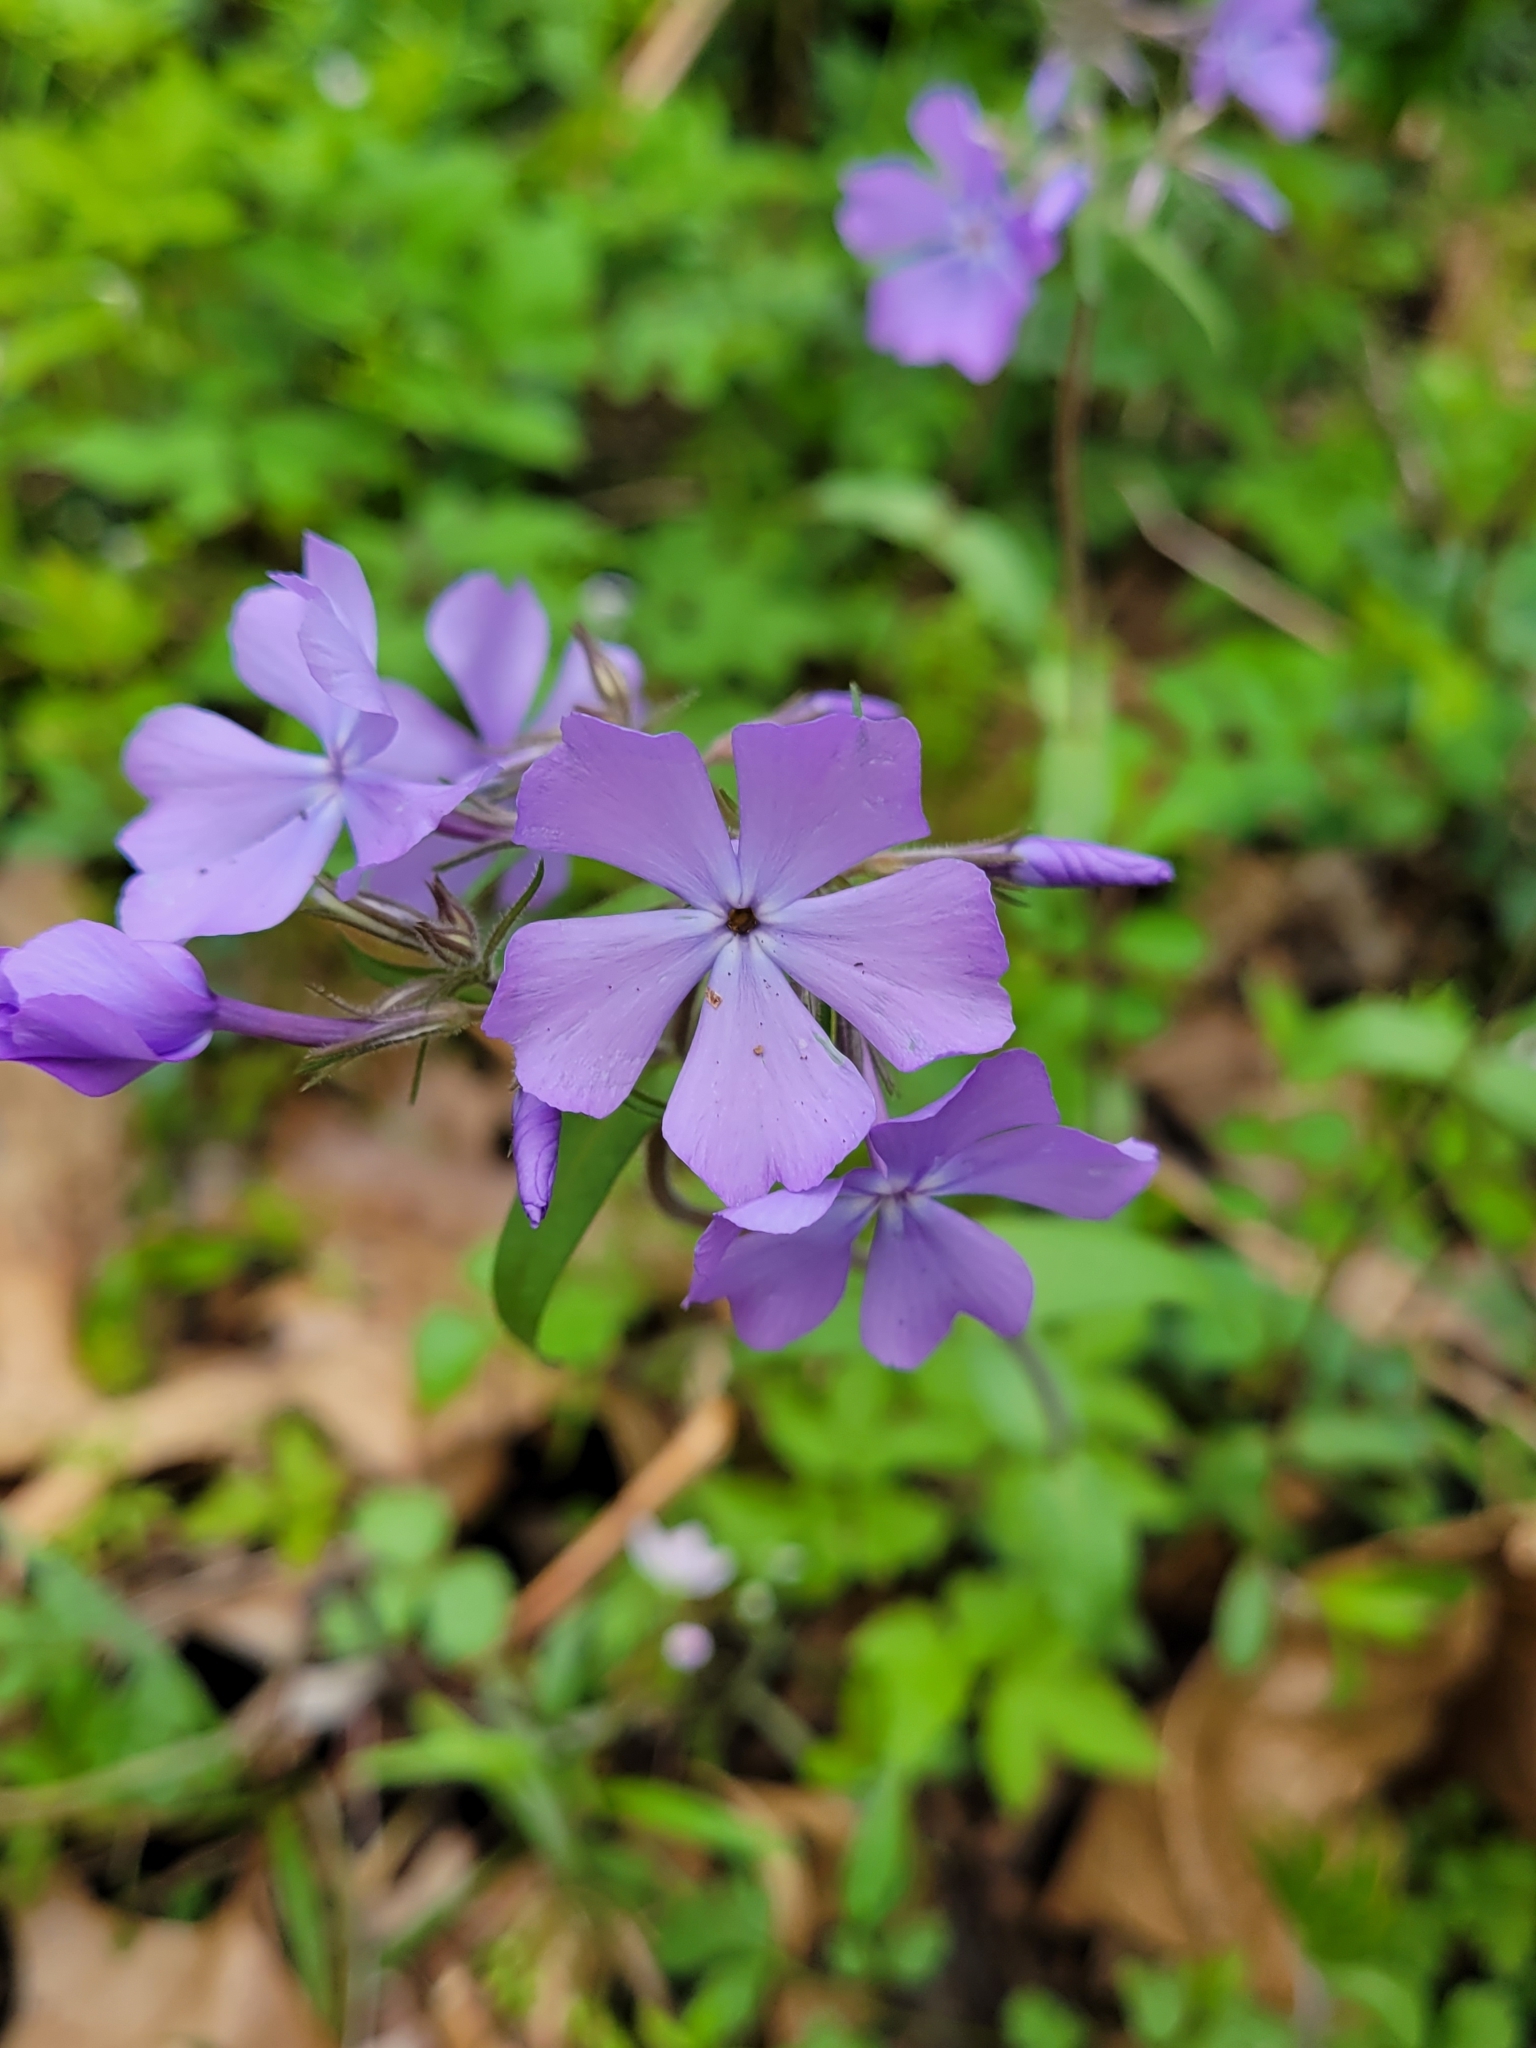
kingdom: Plantae
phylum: Tracheophyta
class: Magnoliopsida
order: Ericales
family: Polemoniaceae
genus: Phlox
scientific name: Phlox divaricata
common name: Blue phlox
